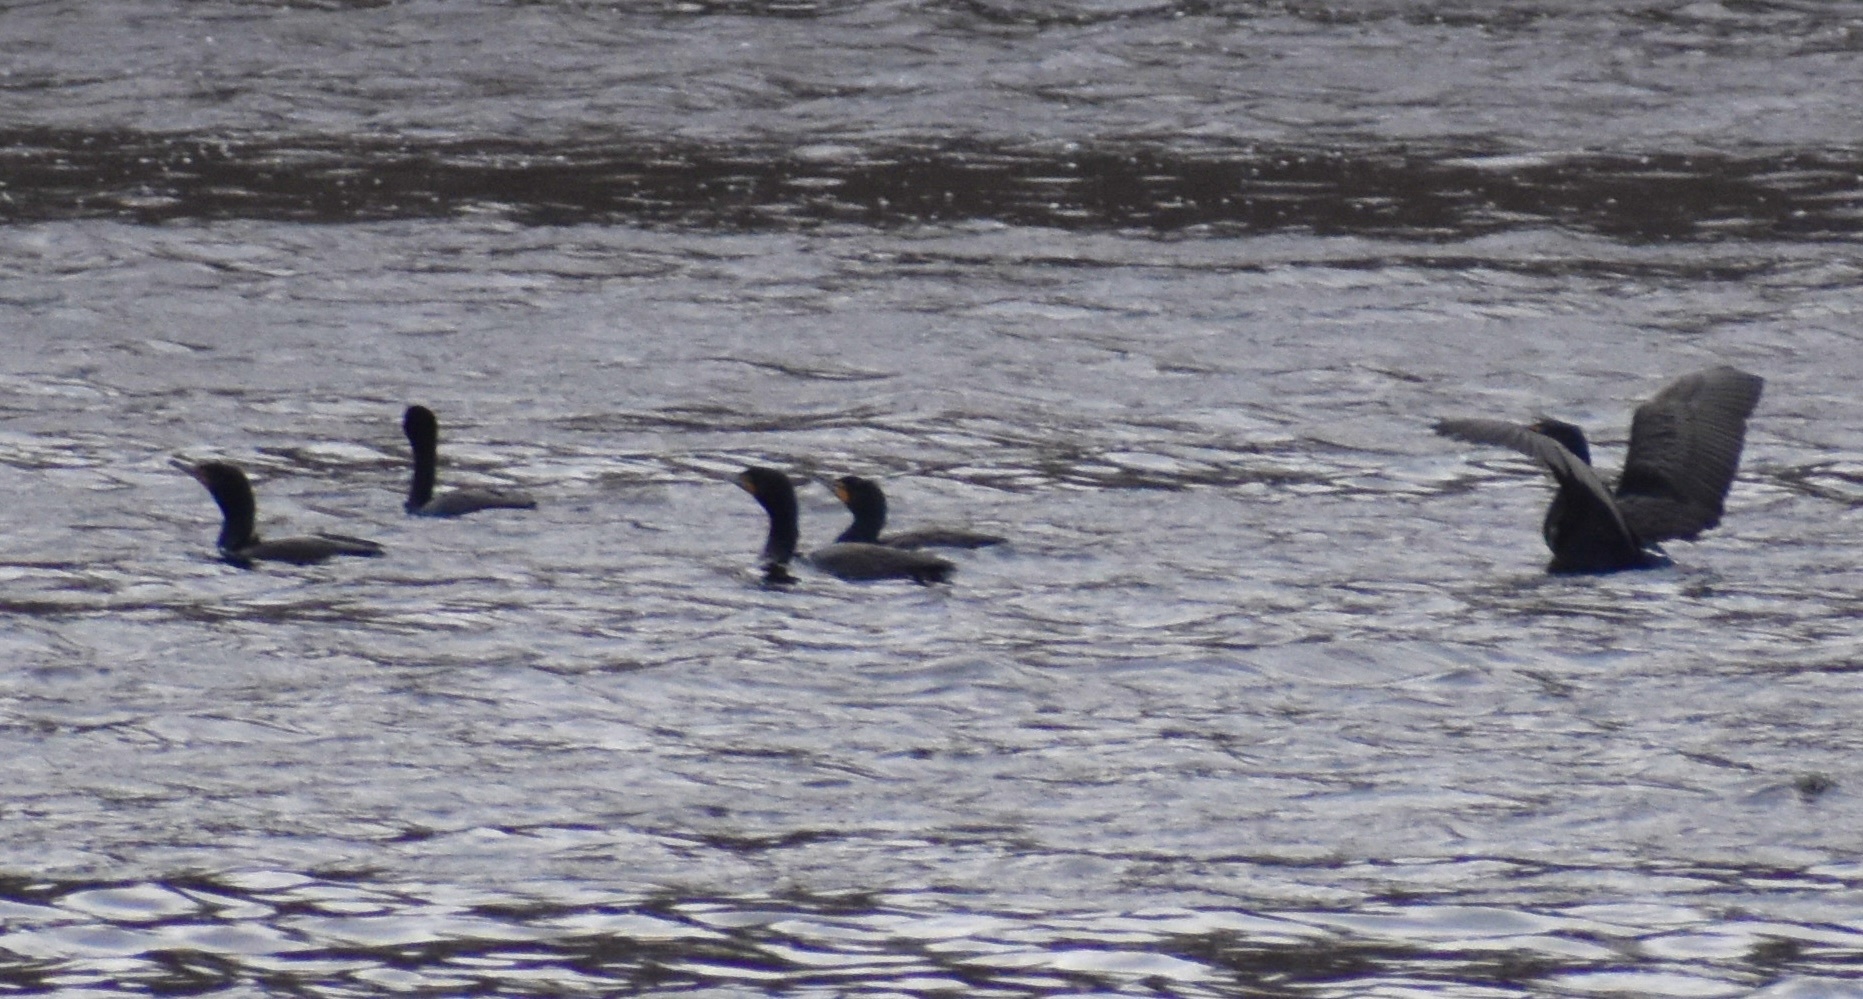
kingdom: Animalia
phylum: Chordata
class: Aves
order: Suliformes
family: Phalacrocoracidae
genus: Phalacrocorax
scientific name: Phalacrocorax auritus
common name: Double-crested cormorant
